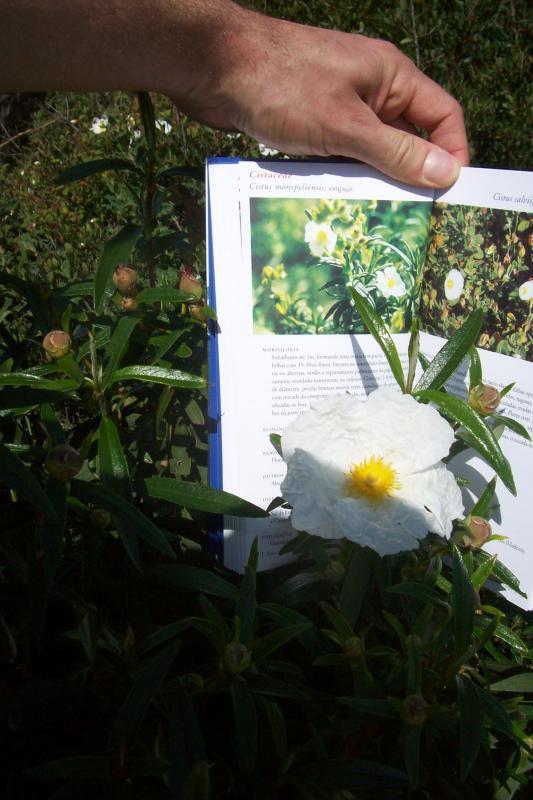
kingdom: Plantae
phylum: Tracheophyta
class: Magnoliopsida
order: Malvales
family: Cistaceae
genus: Cistus
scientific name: Cistus ladanifer
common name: Common gum cistus
